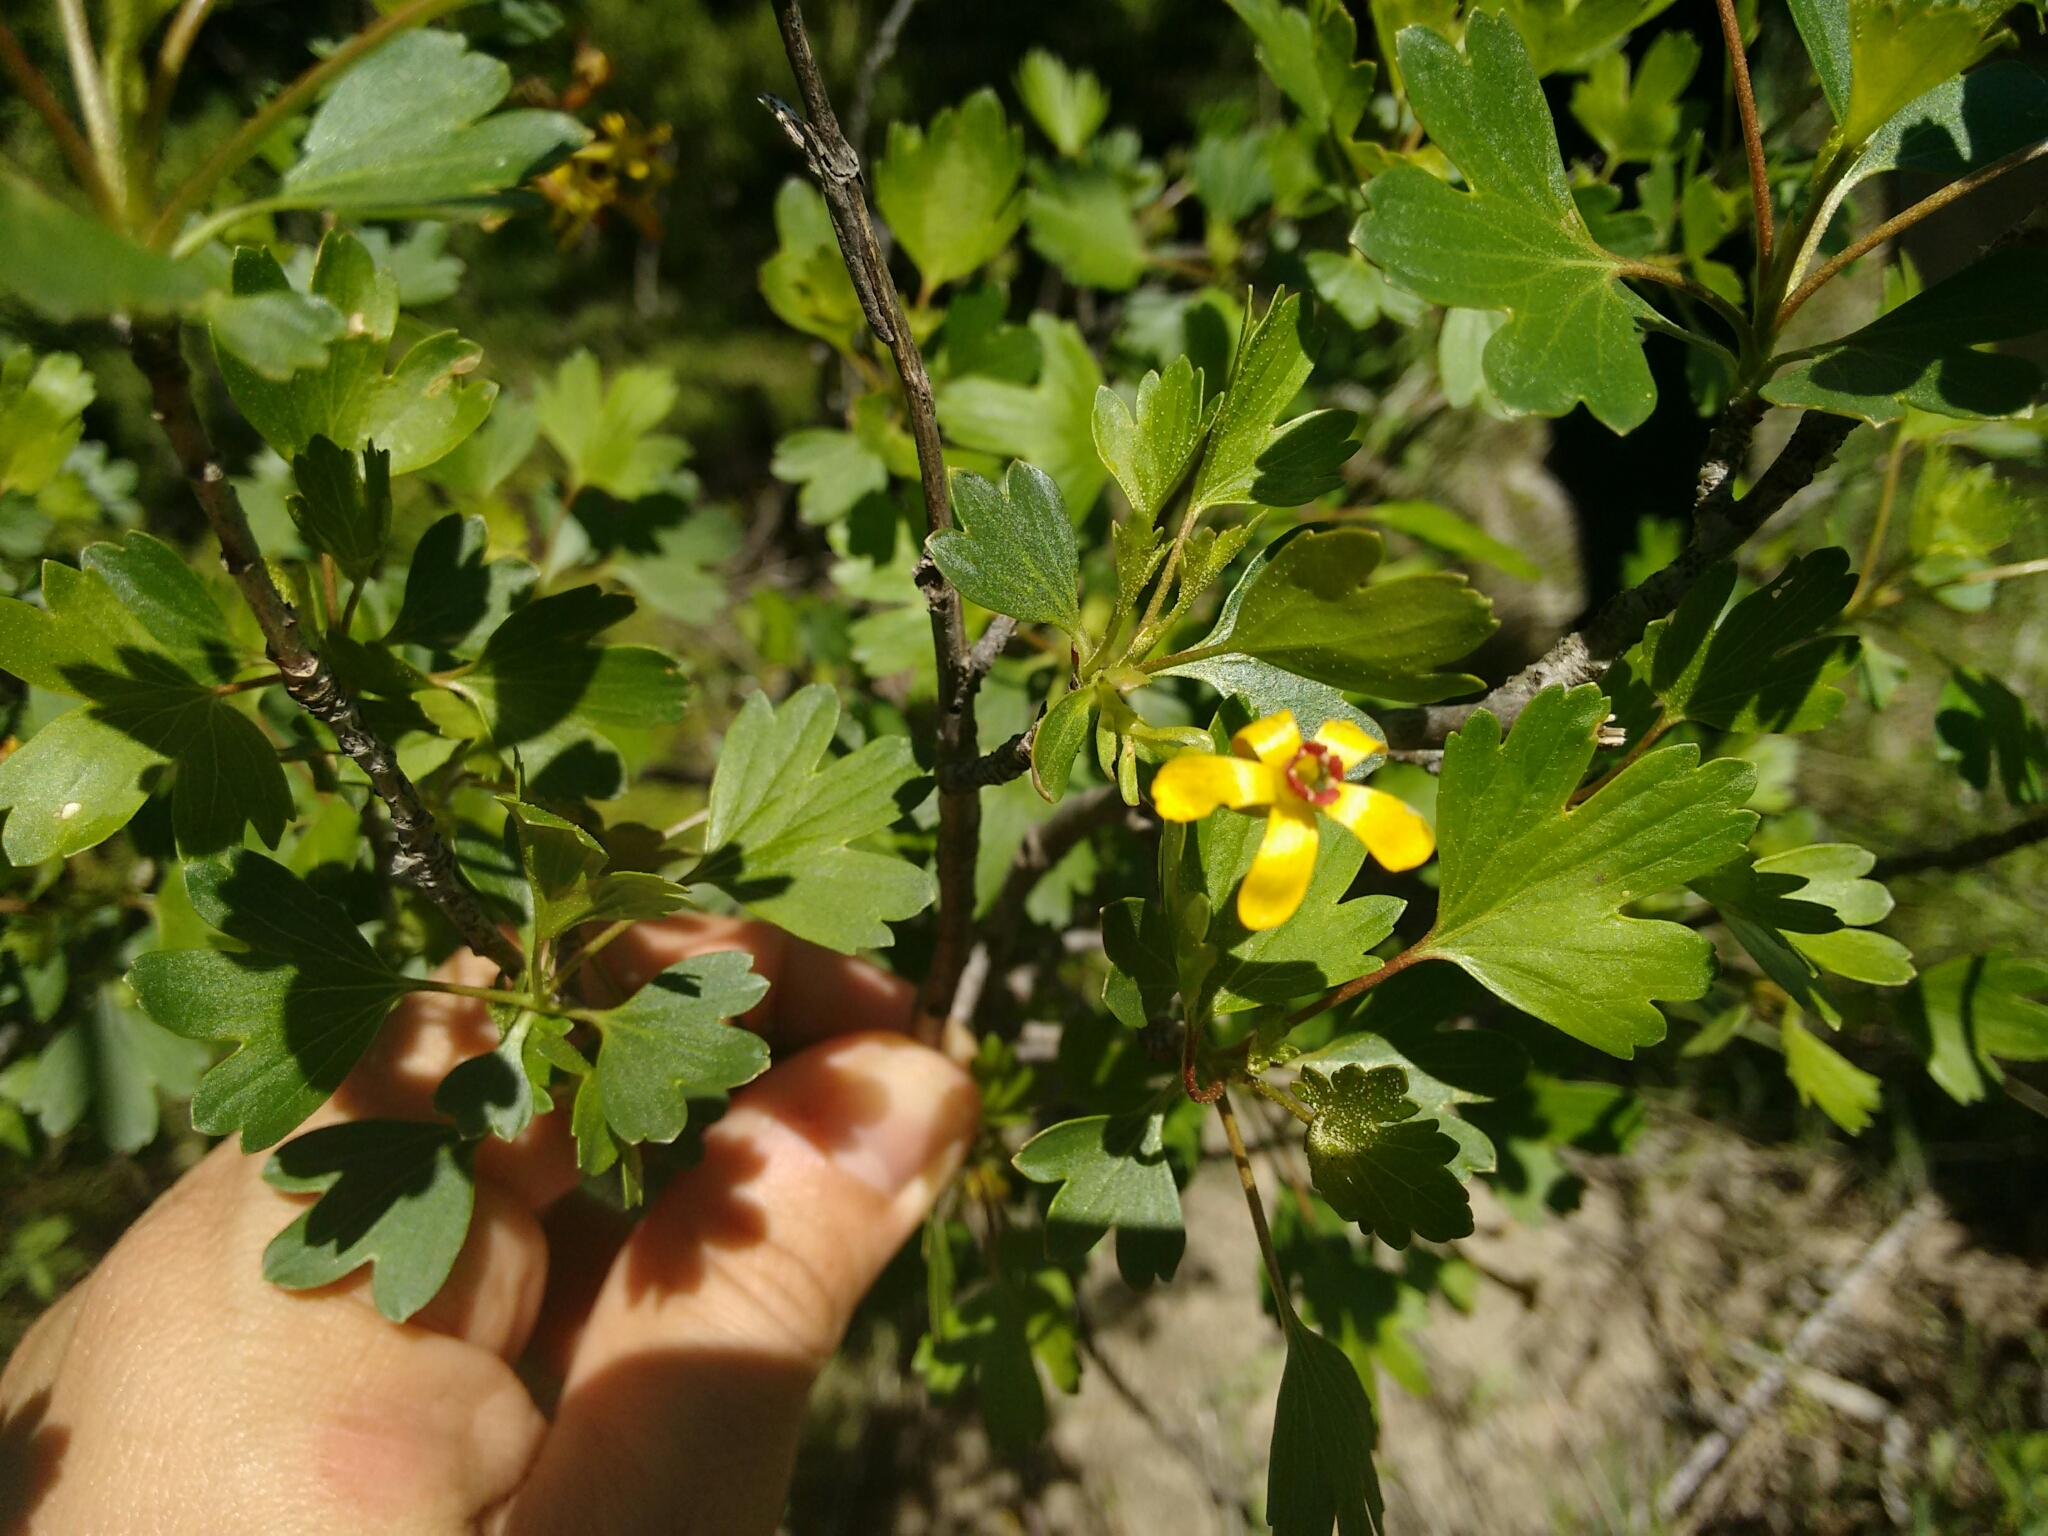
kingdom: Plantae
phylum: Tracheophyta
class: Magnoliopsida
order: Saxifragales
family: Grossulariaceae
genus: Ribes
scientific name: Ribes aureum
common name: Golden currant
